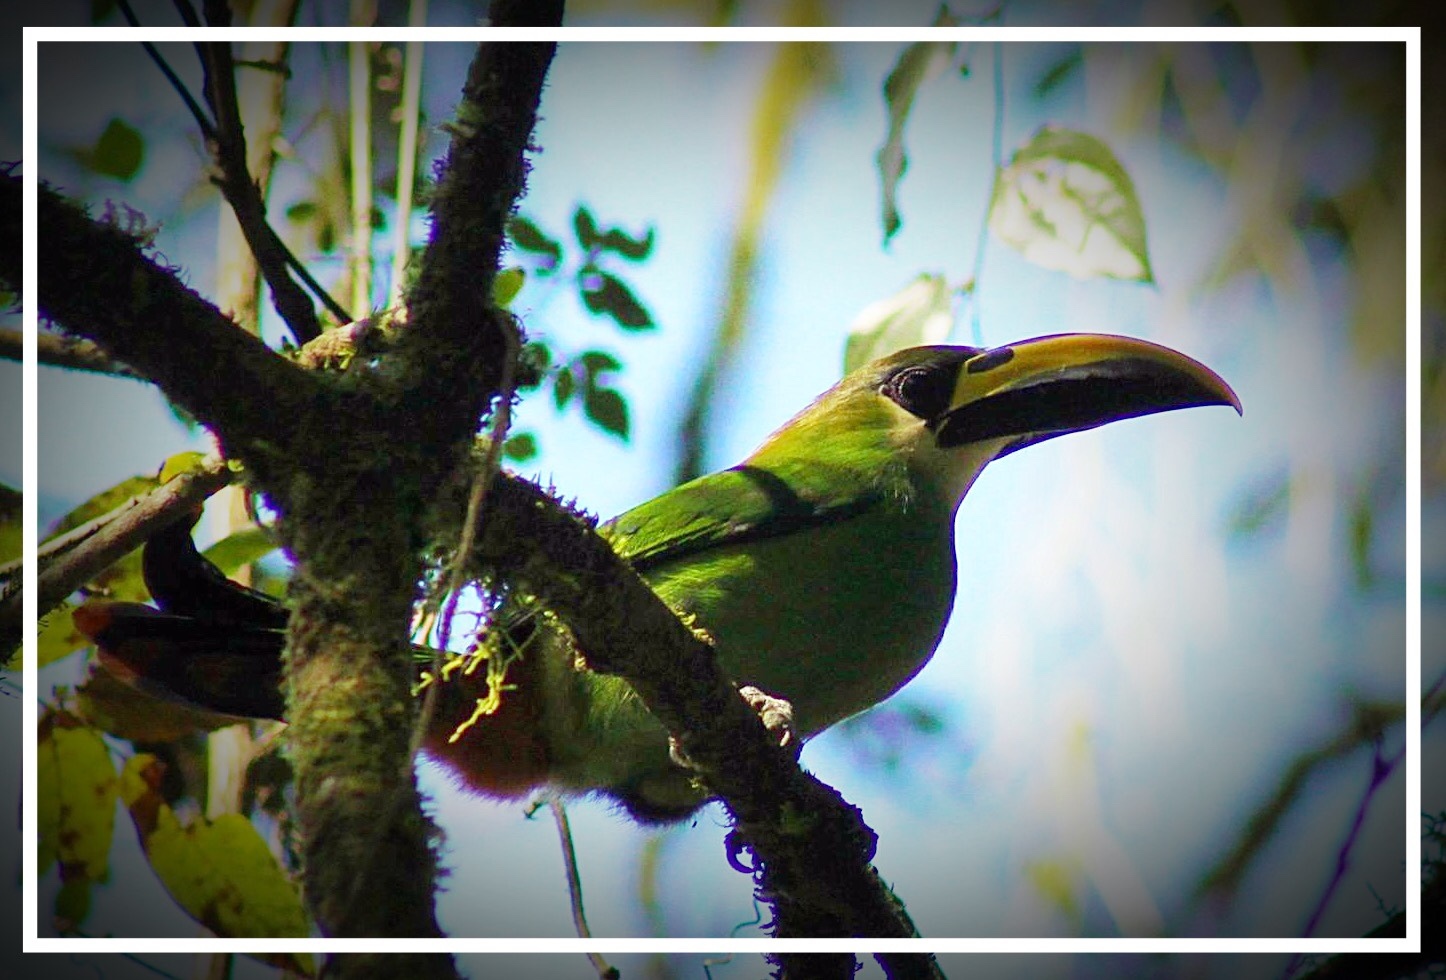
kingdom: Animalia
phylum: Chordata
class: Aves
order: Piciformes
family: Ramphastidae
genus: Aulacorhynchus
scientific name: Aulacorhynchus prasinus
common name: Emerald toucanet
